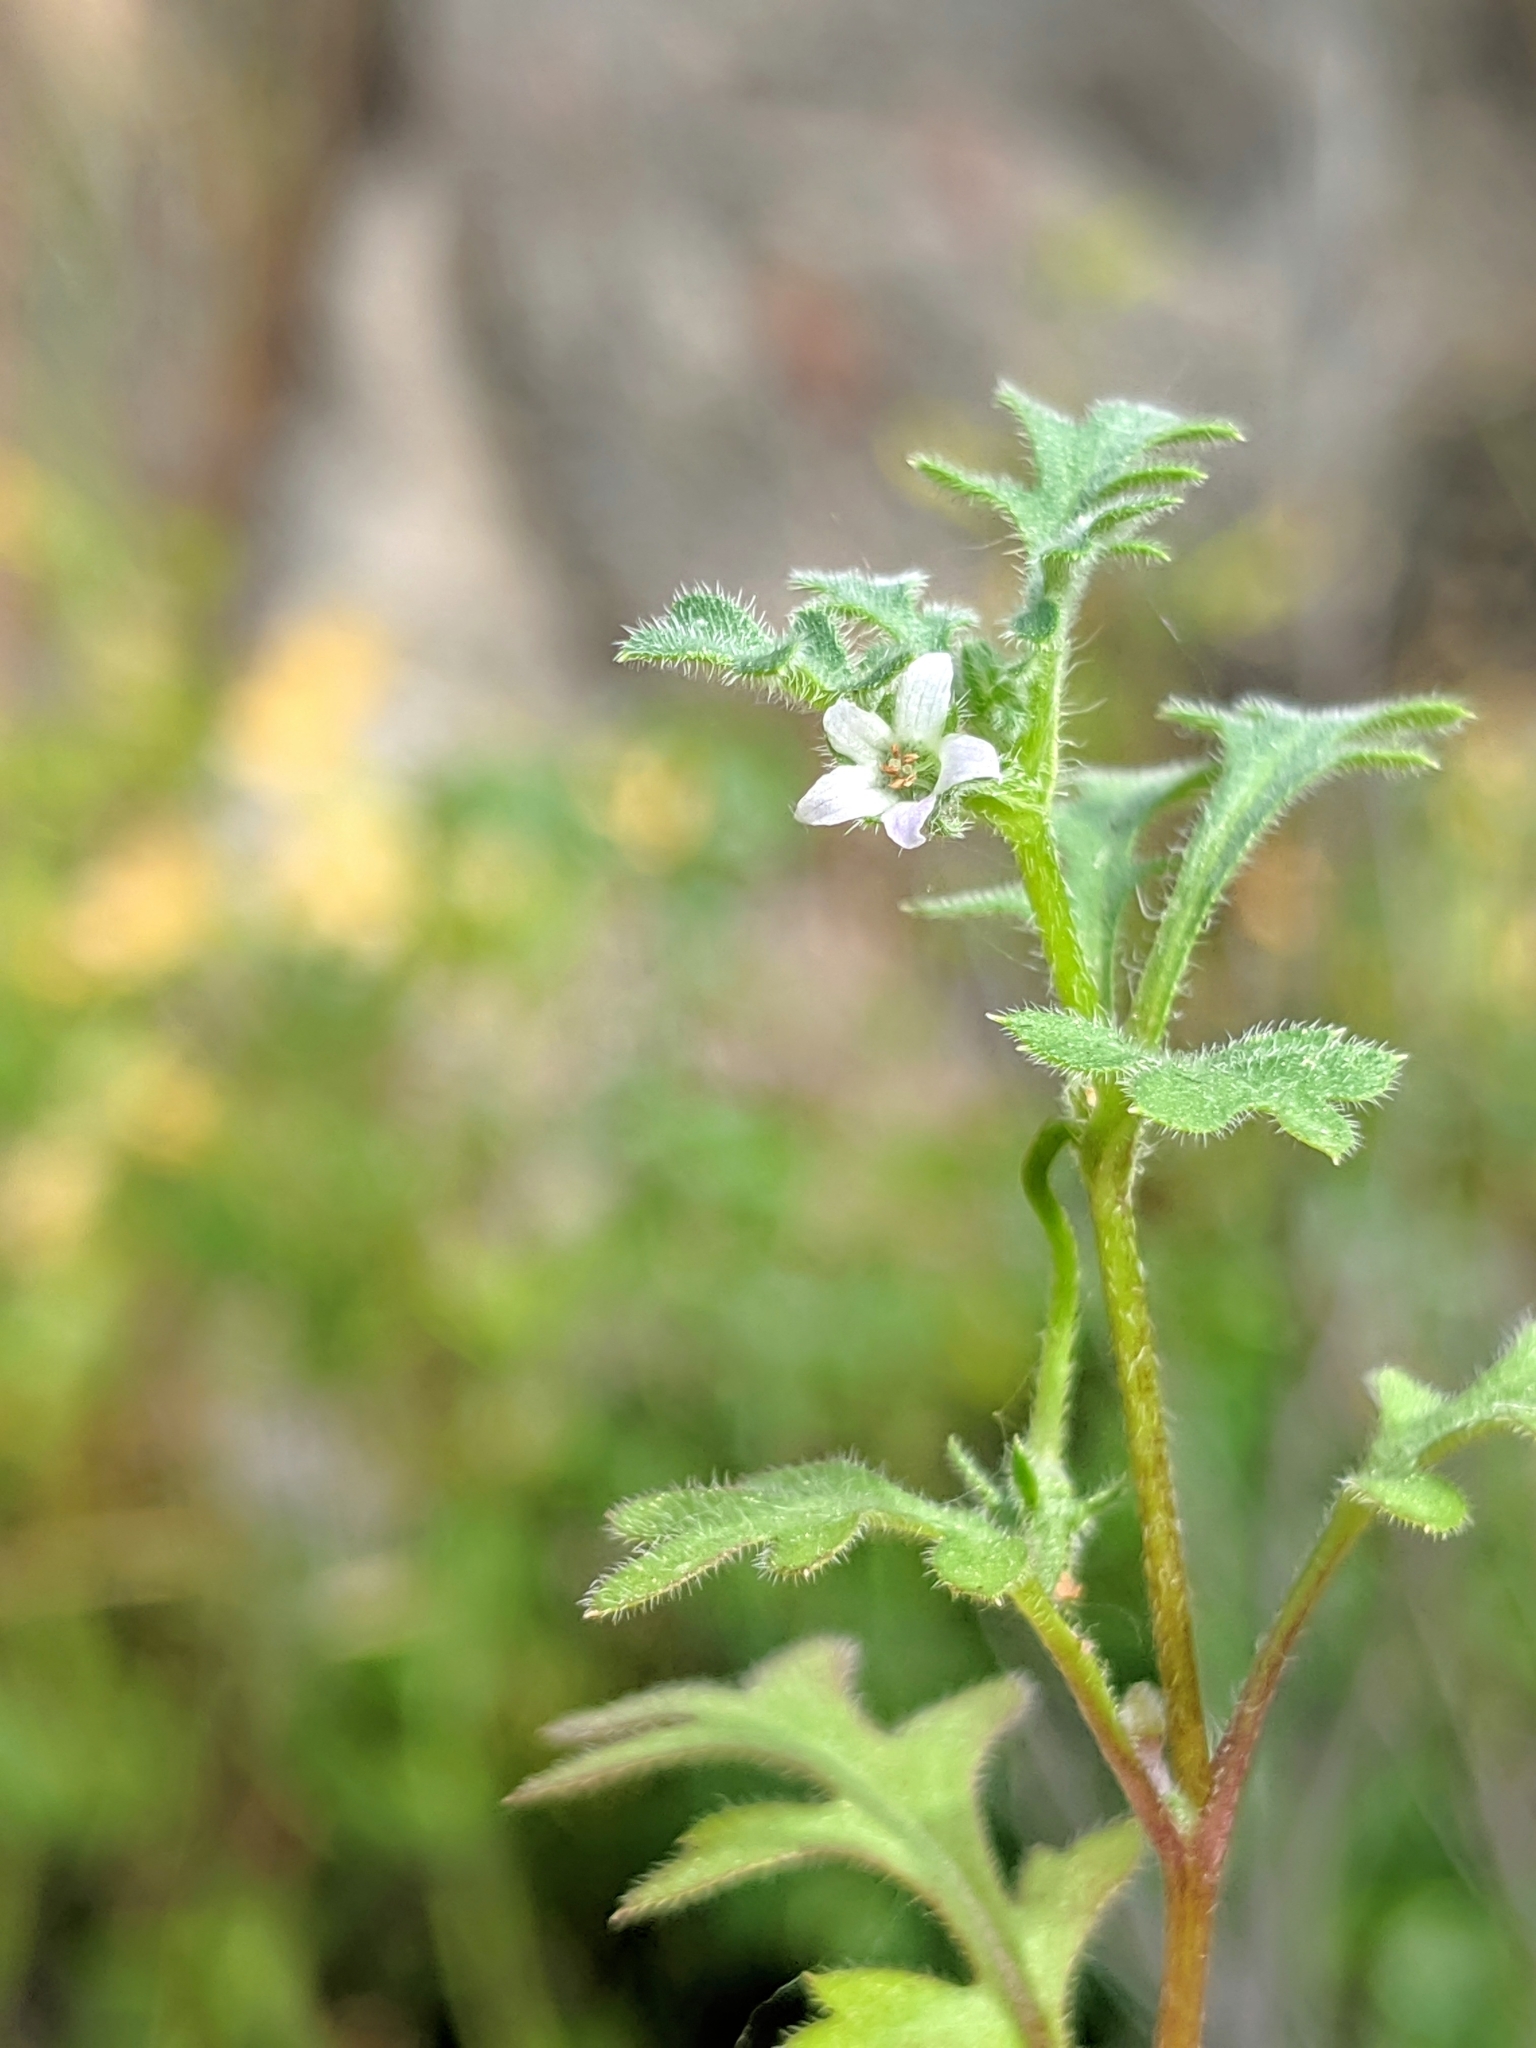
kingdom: Plantae
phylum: Tracheophyta
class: Magnoliopsida
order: Boraginales
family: Hydrophyllaceae
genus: Nemophila
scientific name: Nemophila parviflora
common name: Small-flowered baby-blue-eyes
